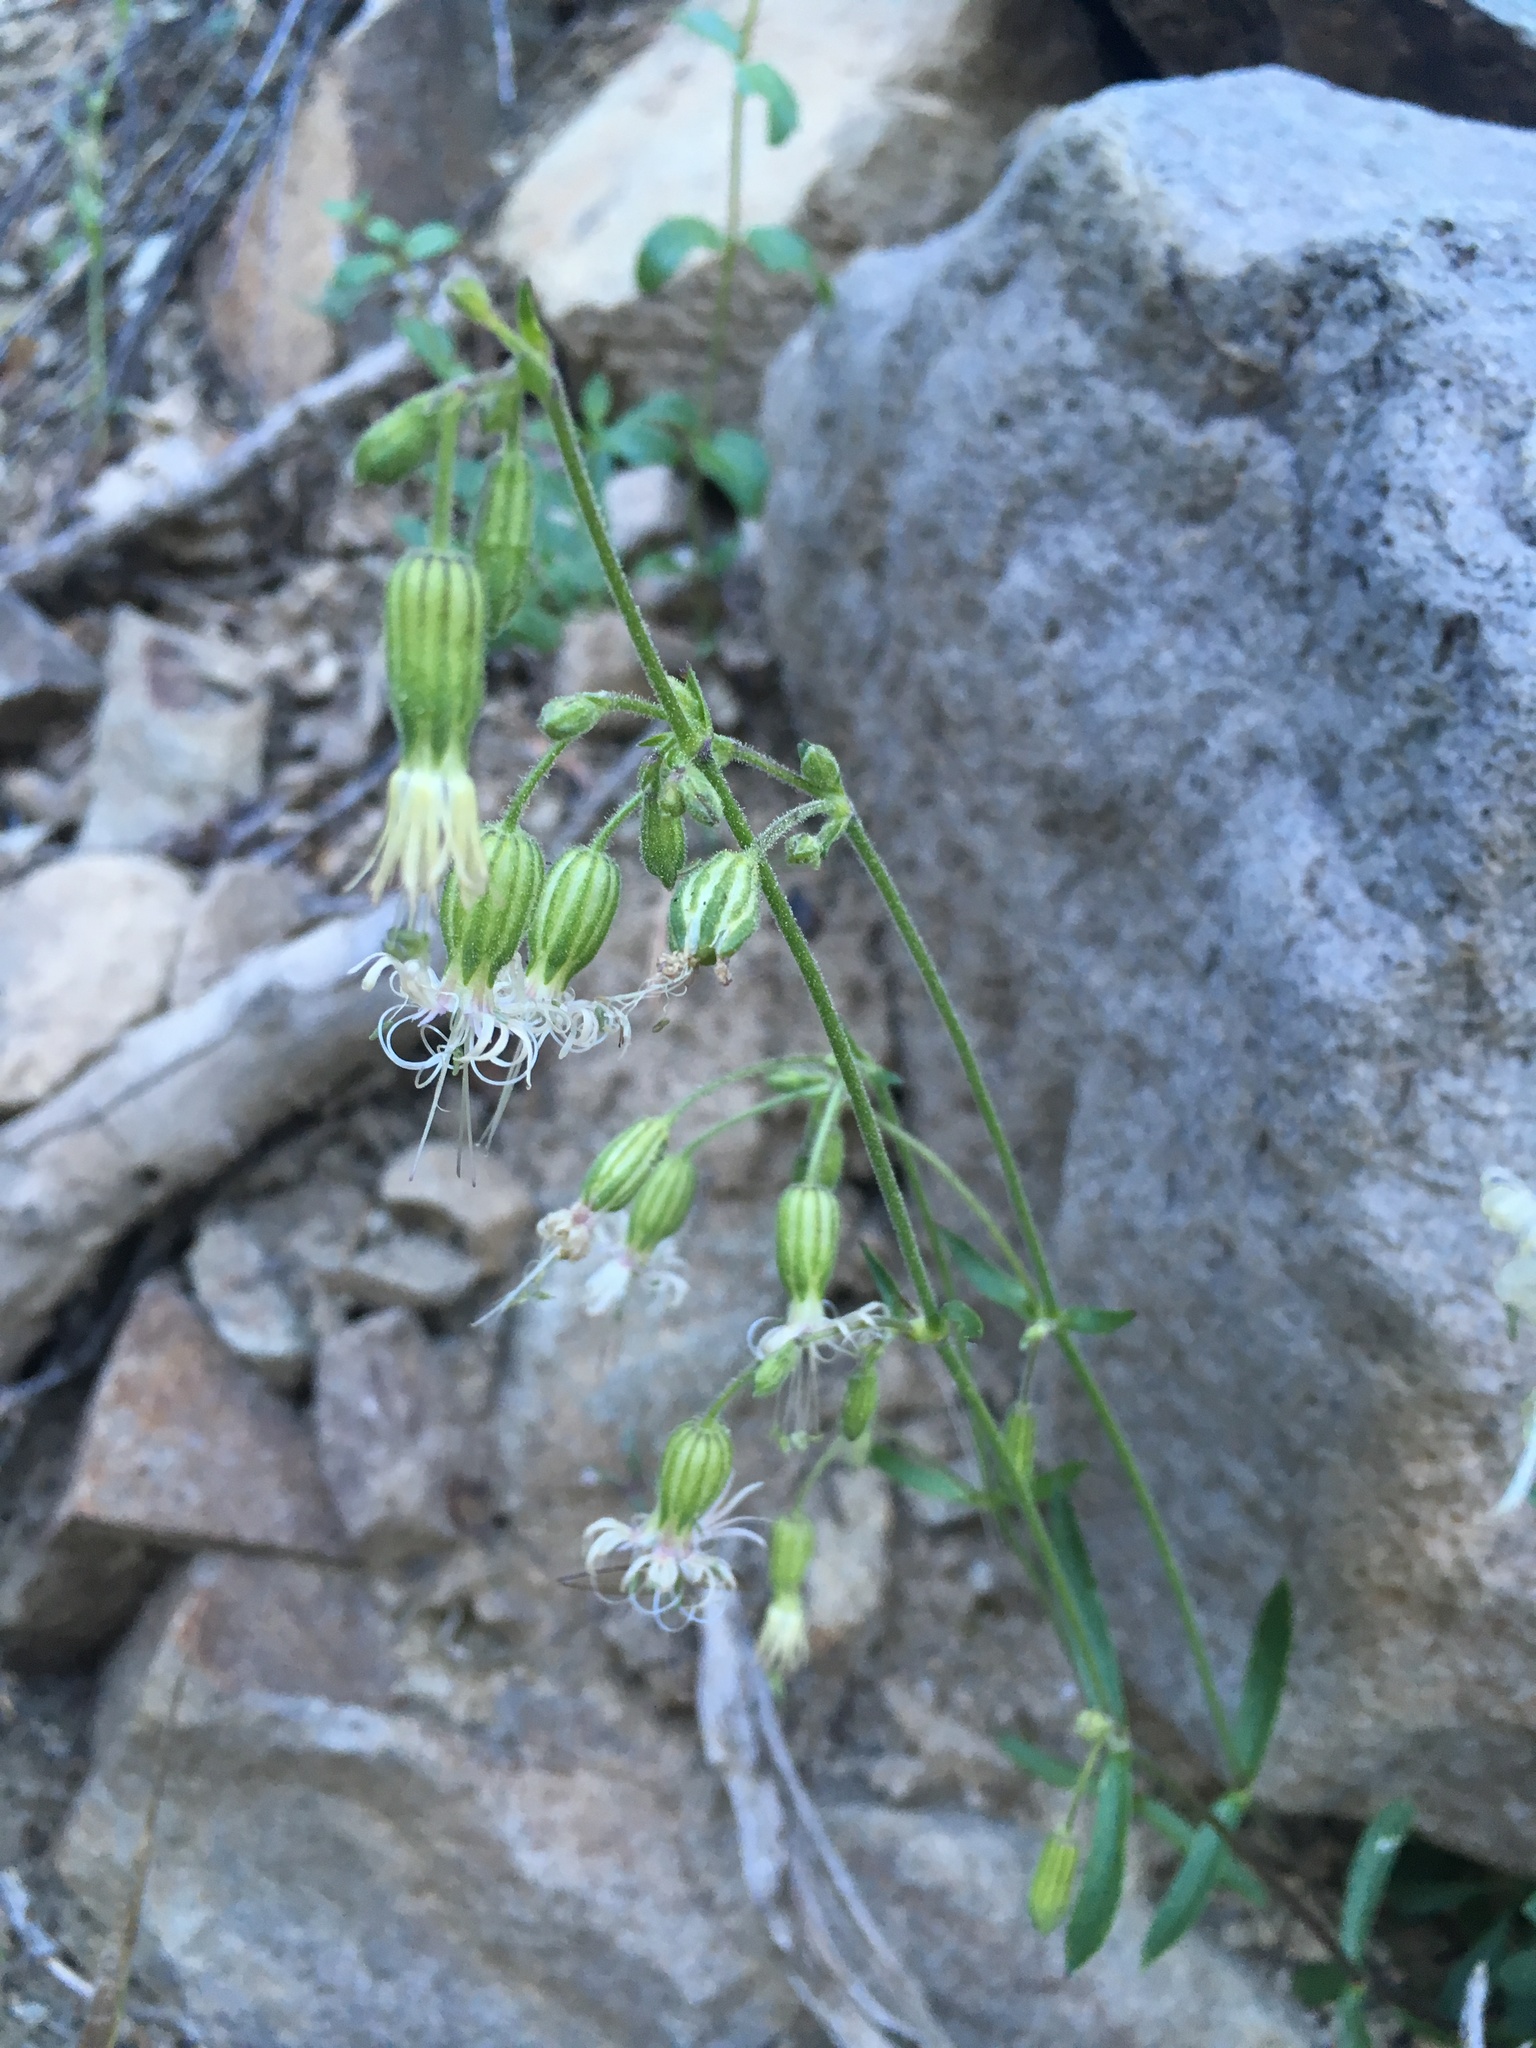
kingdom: Plantae
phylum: Tracheophyta
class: Magnoliopsida
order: Caryophyllales
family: Caryophyllaceae
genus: Silene
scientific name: Silene lemmonii
